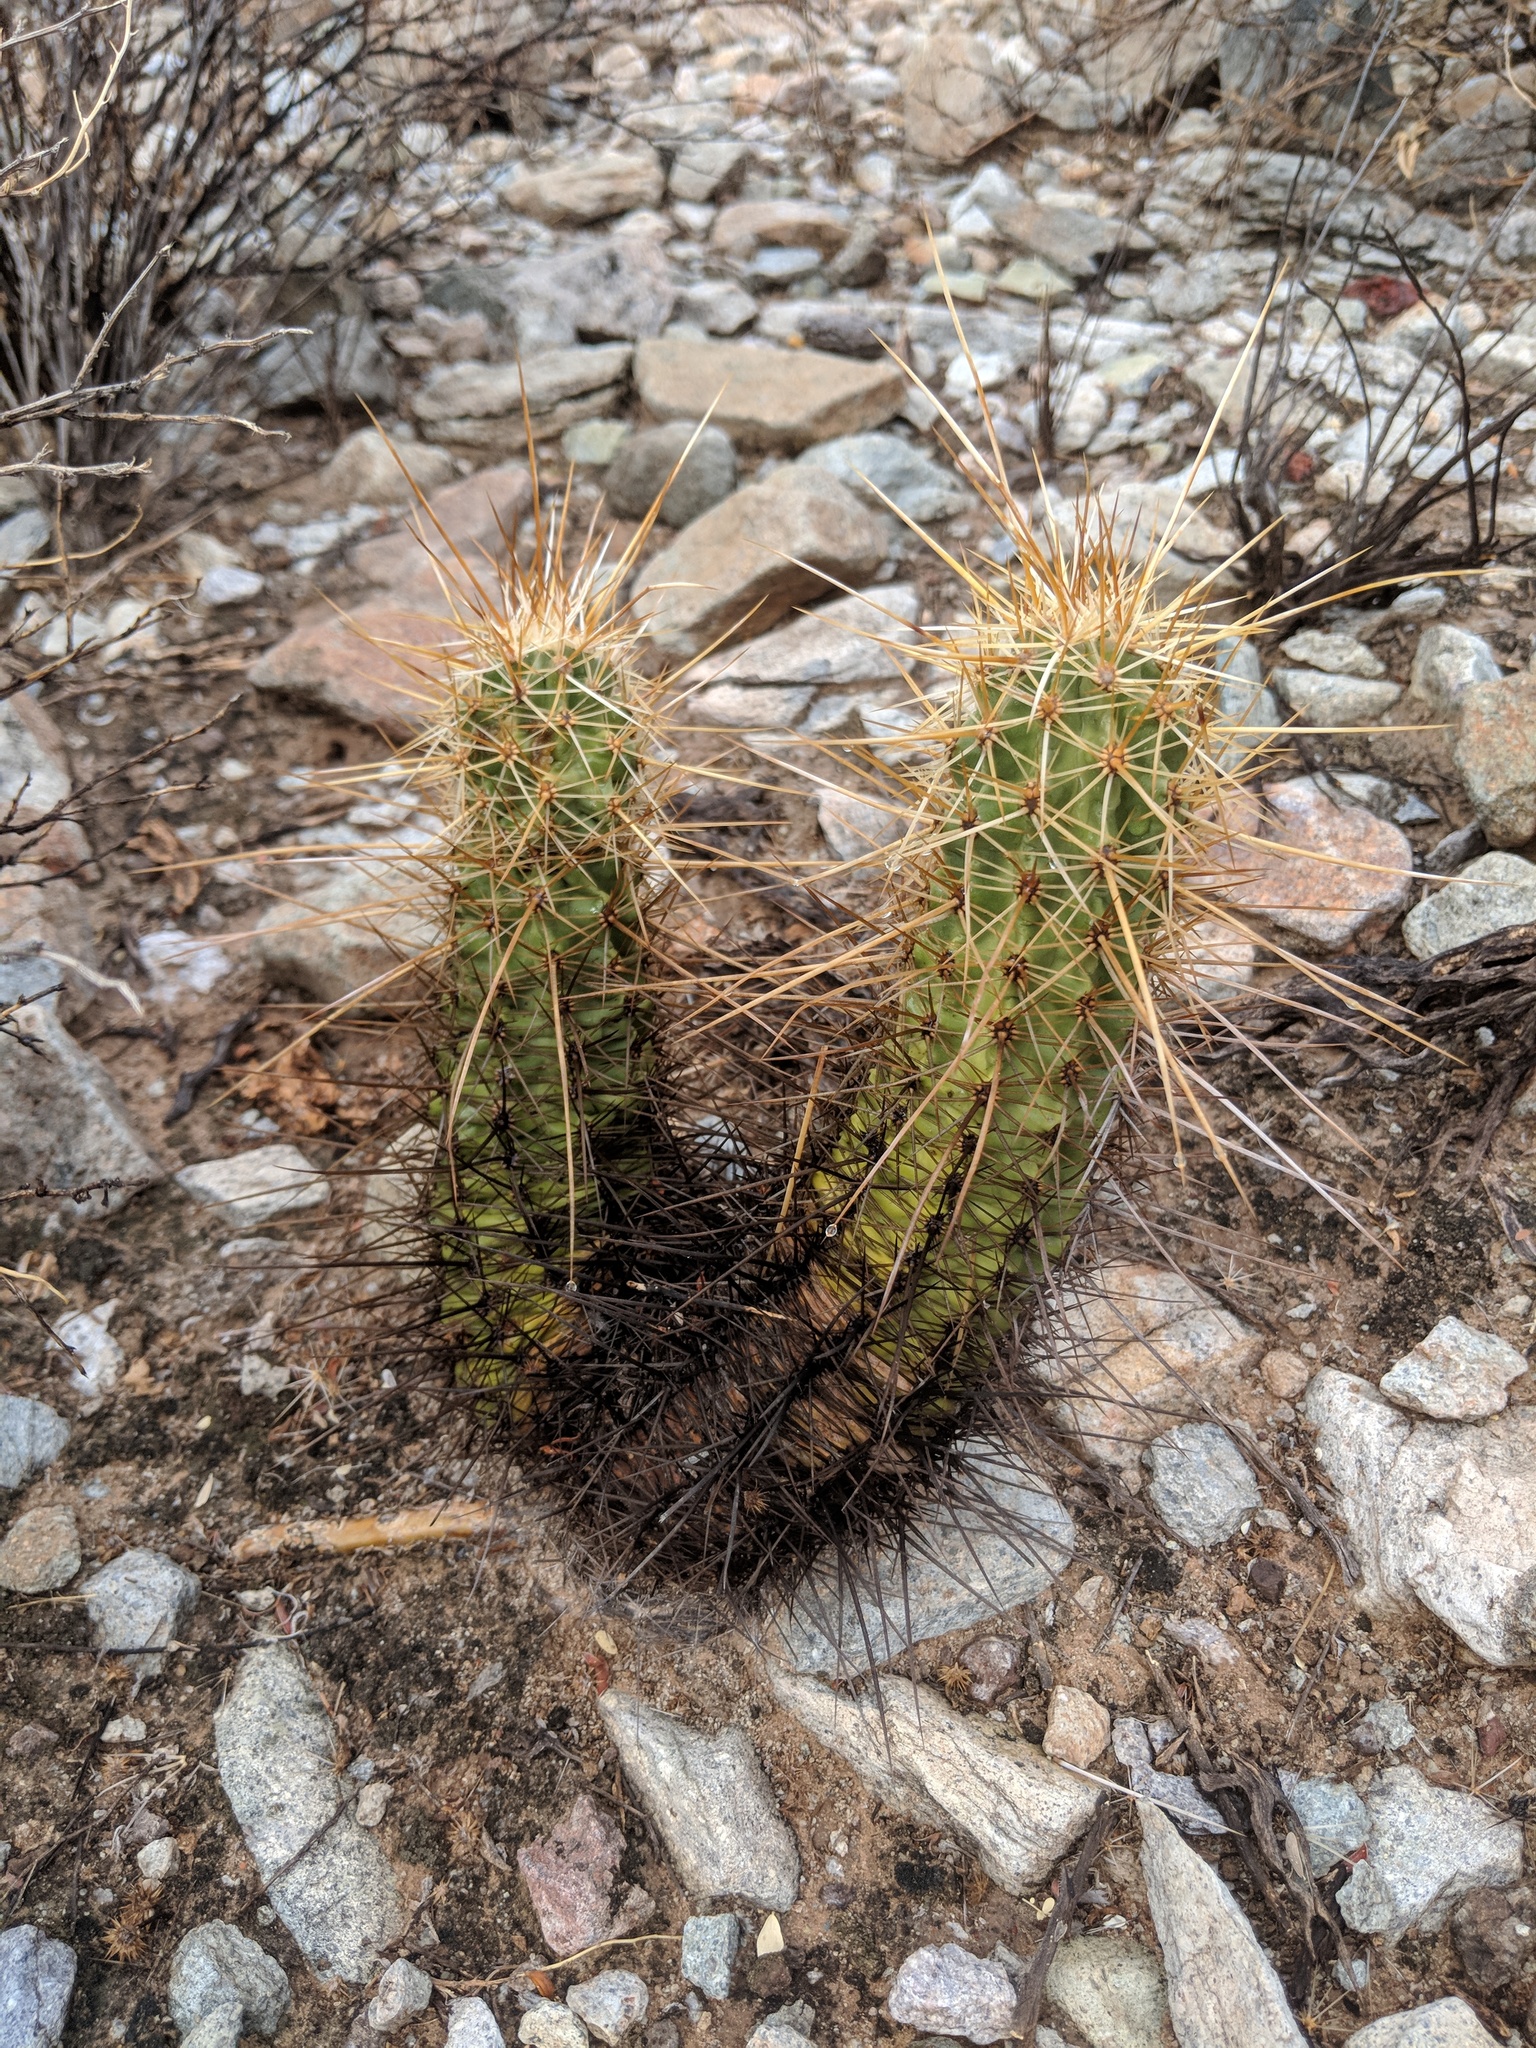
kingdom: Plantae
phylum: Tracheophyta
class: Magnoliopsida
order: Caryophyllales
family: Cactaceae
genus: Echinocereus
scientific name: Echinocereus engelmannii
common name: Engelmann's hedgehog cactus
